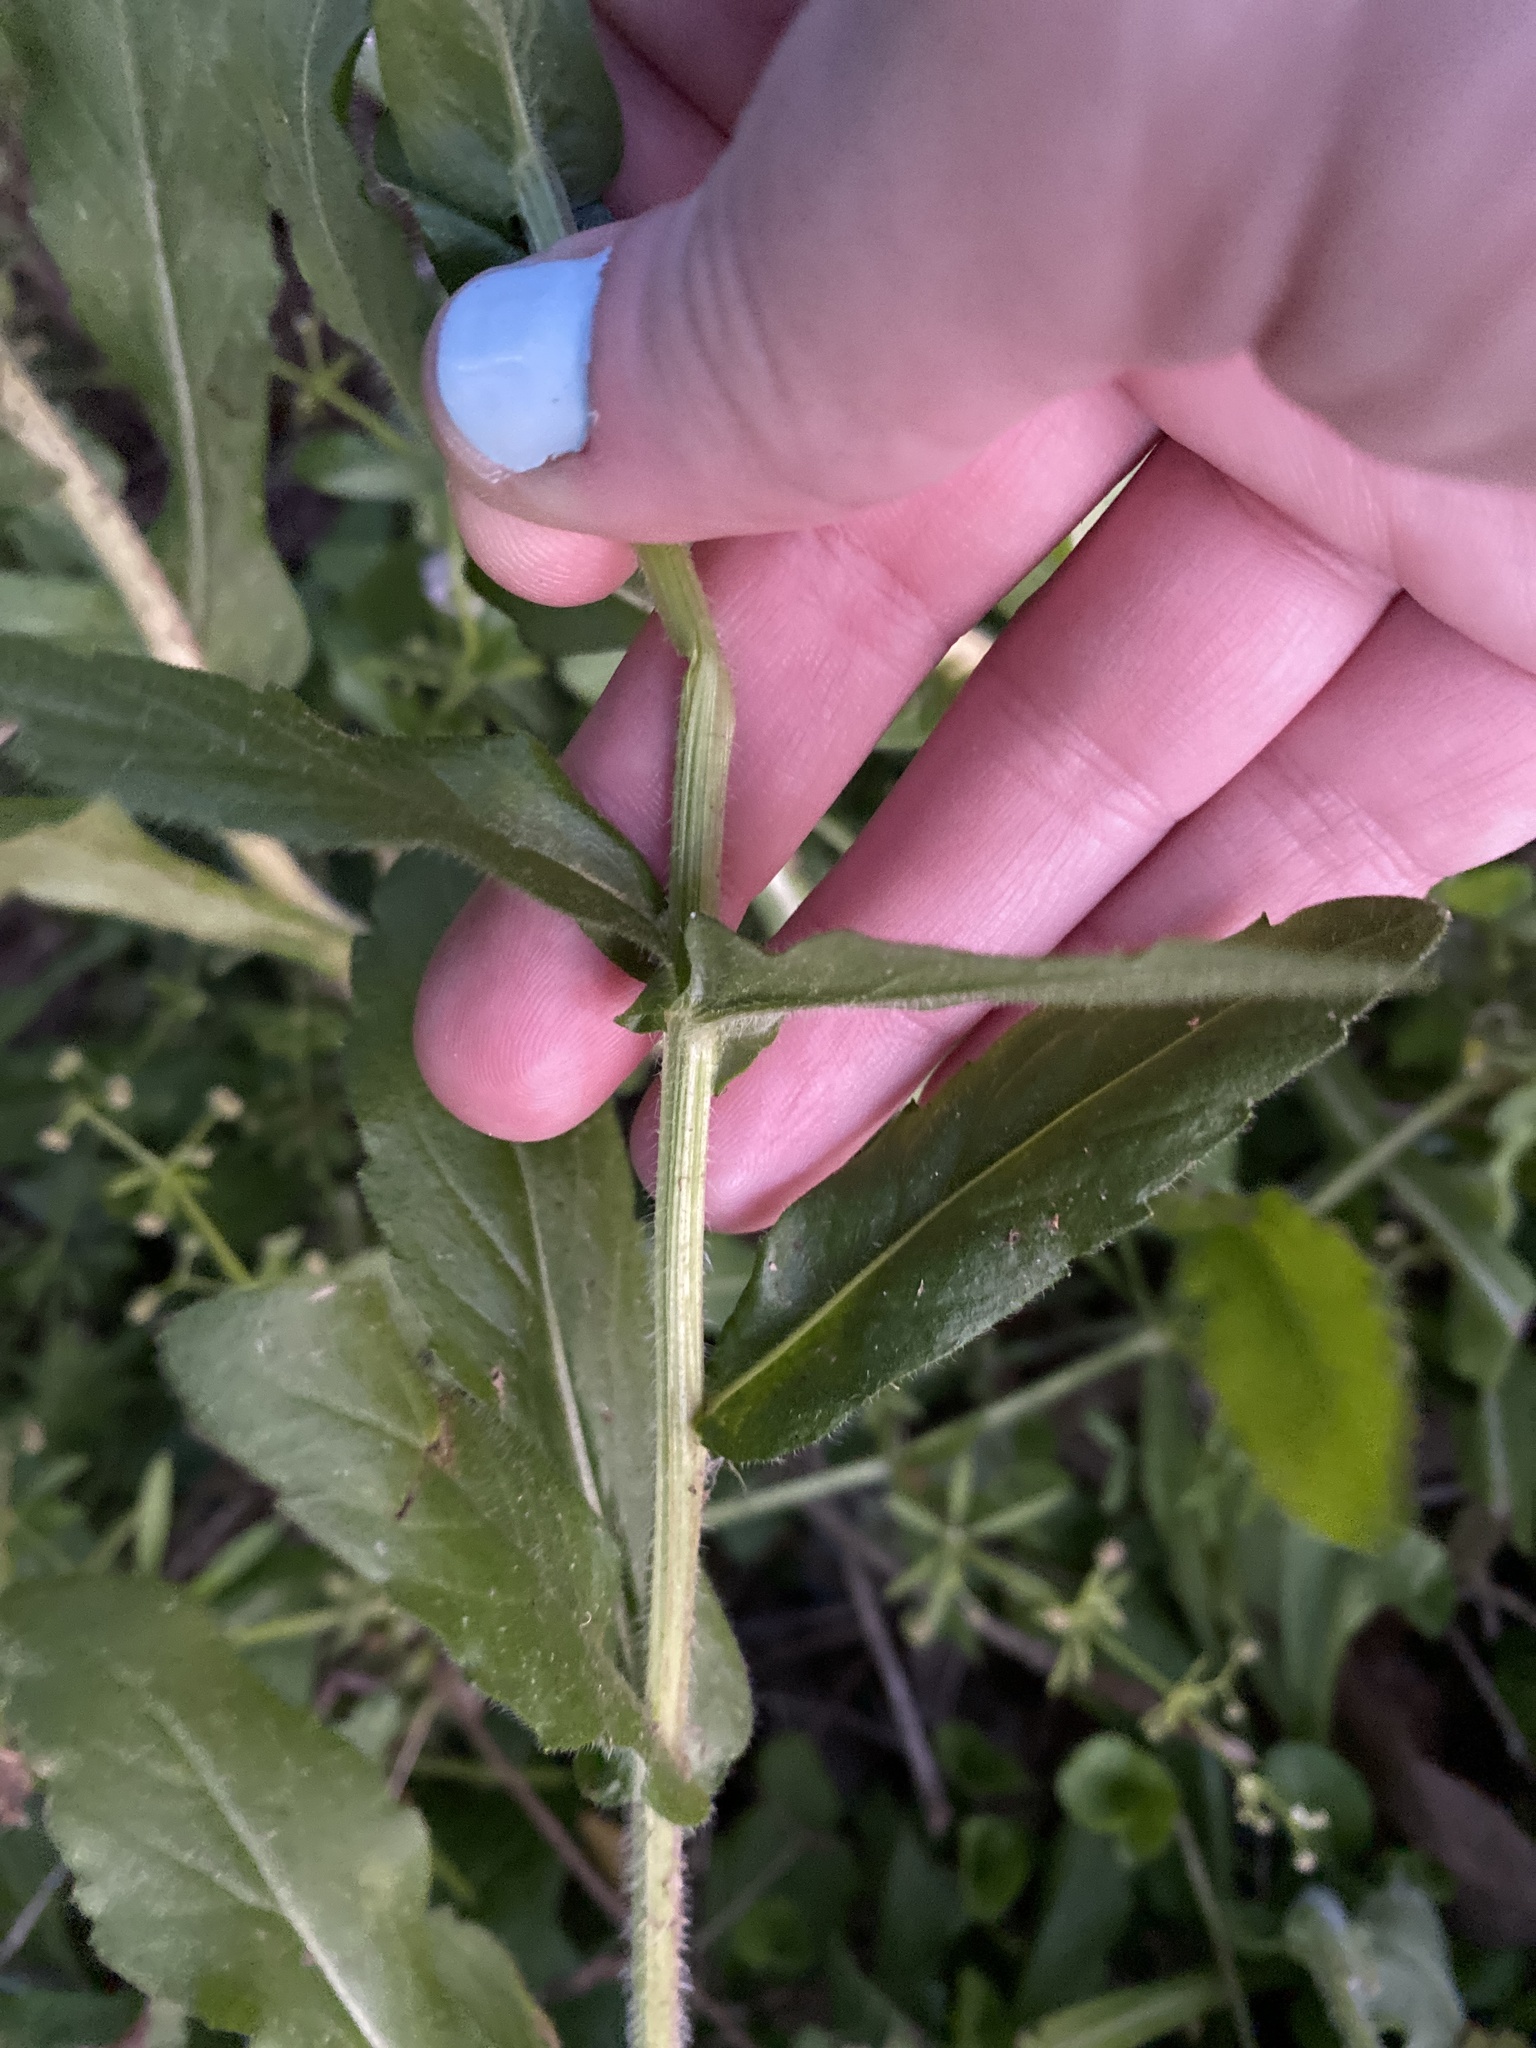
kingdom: Plantae
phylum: Tracheophyta
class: Magnoliopsida
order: Asterales
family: Asteraceae
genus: Erigeron
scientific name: Erigeron philadelphicus
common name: Robin's-plantain
